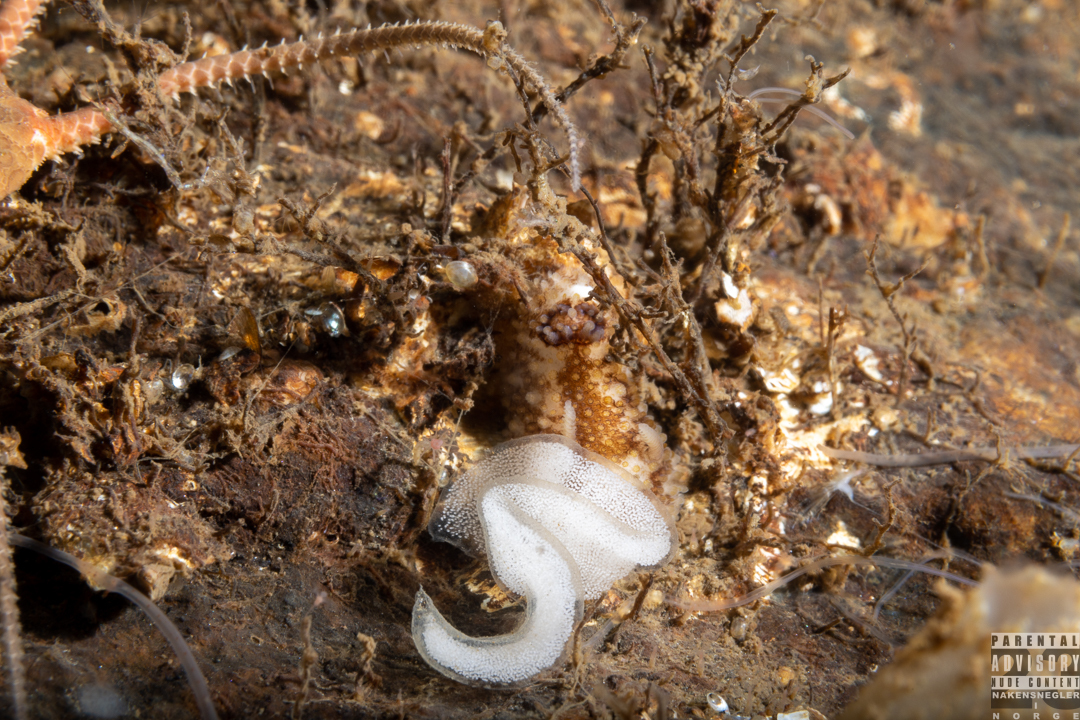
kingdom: Animalia
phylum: Mollusca
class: Gastropoda
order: Nudibranchia
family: Onchidorididae
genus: Onchidoris
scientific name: Onchidoris bilamellata
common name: Barnacle-eating onchidoris
